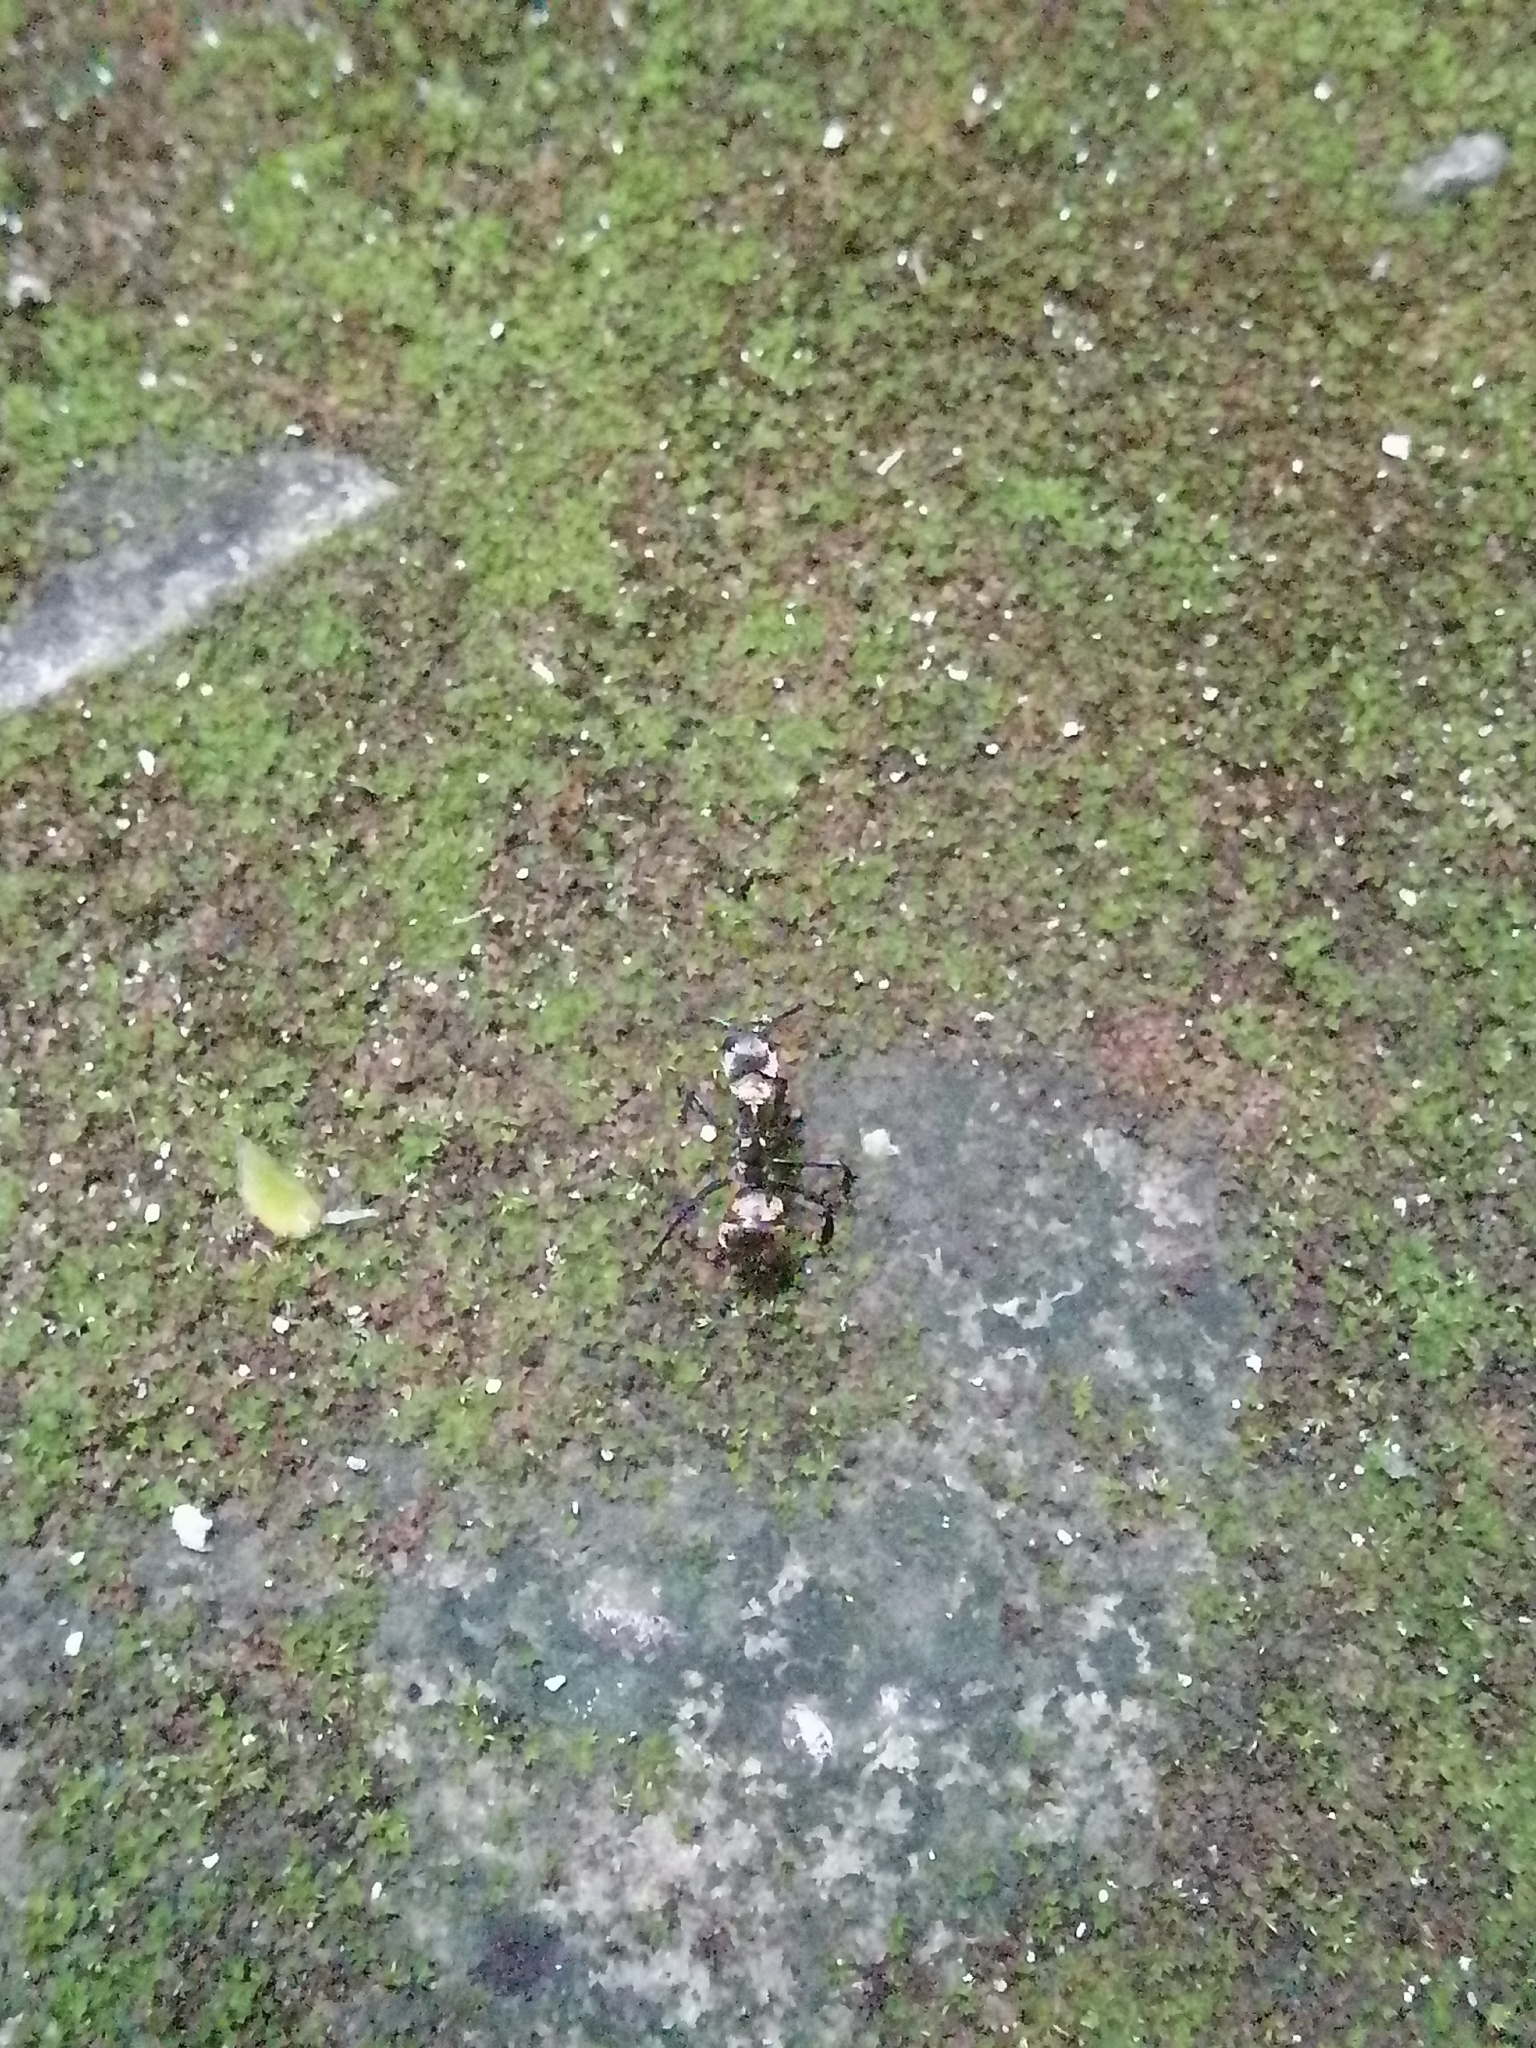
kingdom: Animalia
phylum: Arthropoda
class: Insecta
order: Hymenoptera
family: Formicidae
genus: Camponotus
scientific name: Camponotus sericeiventris
